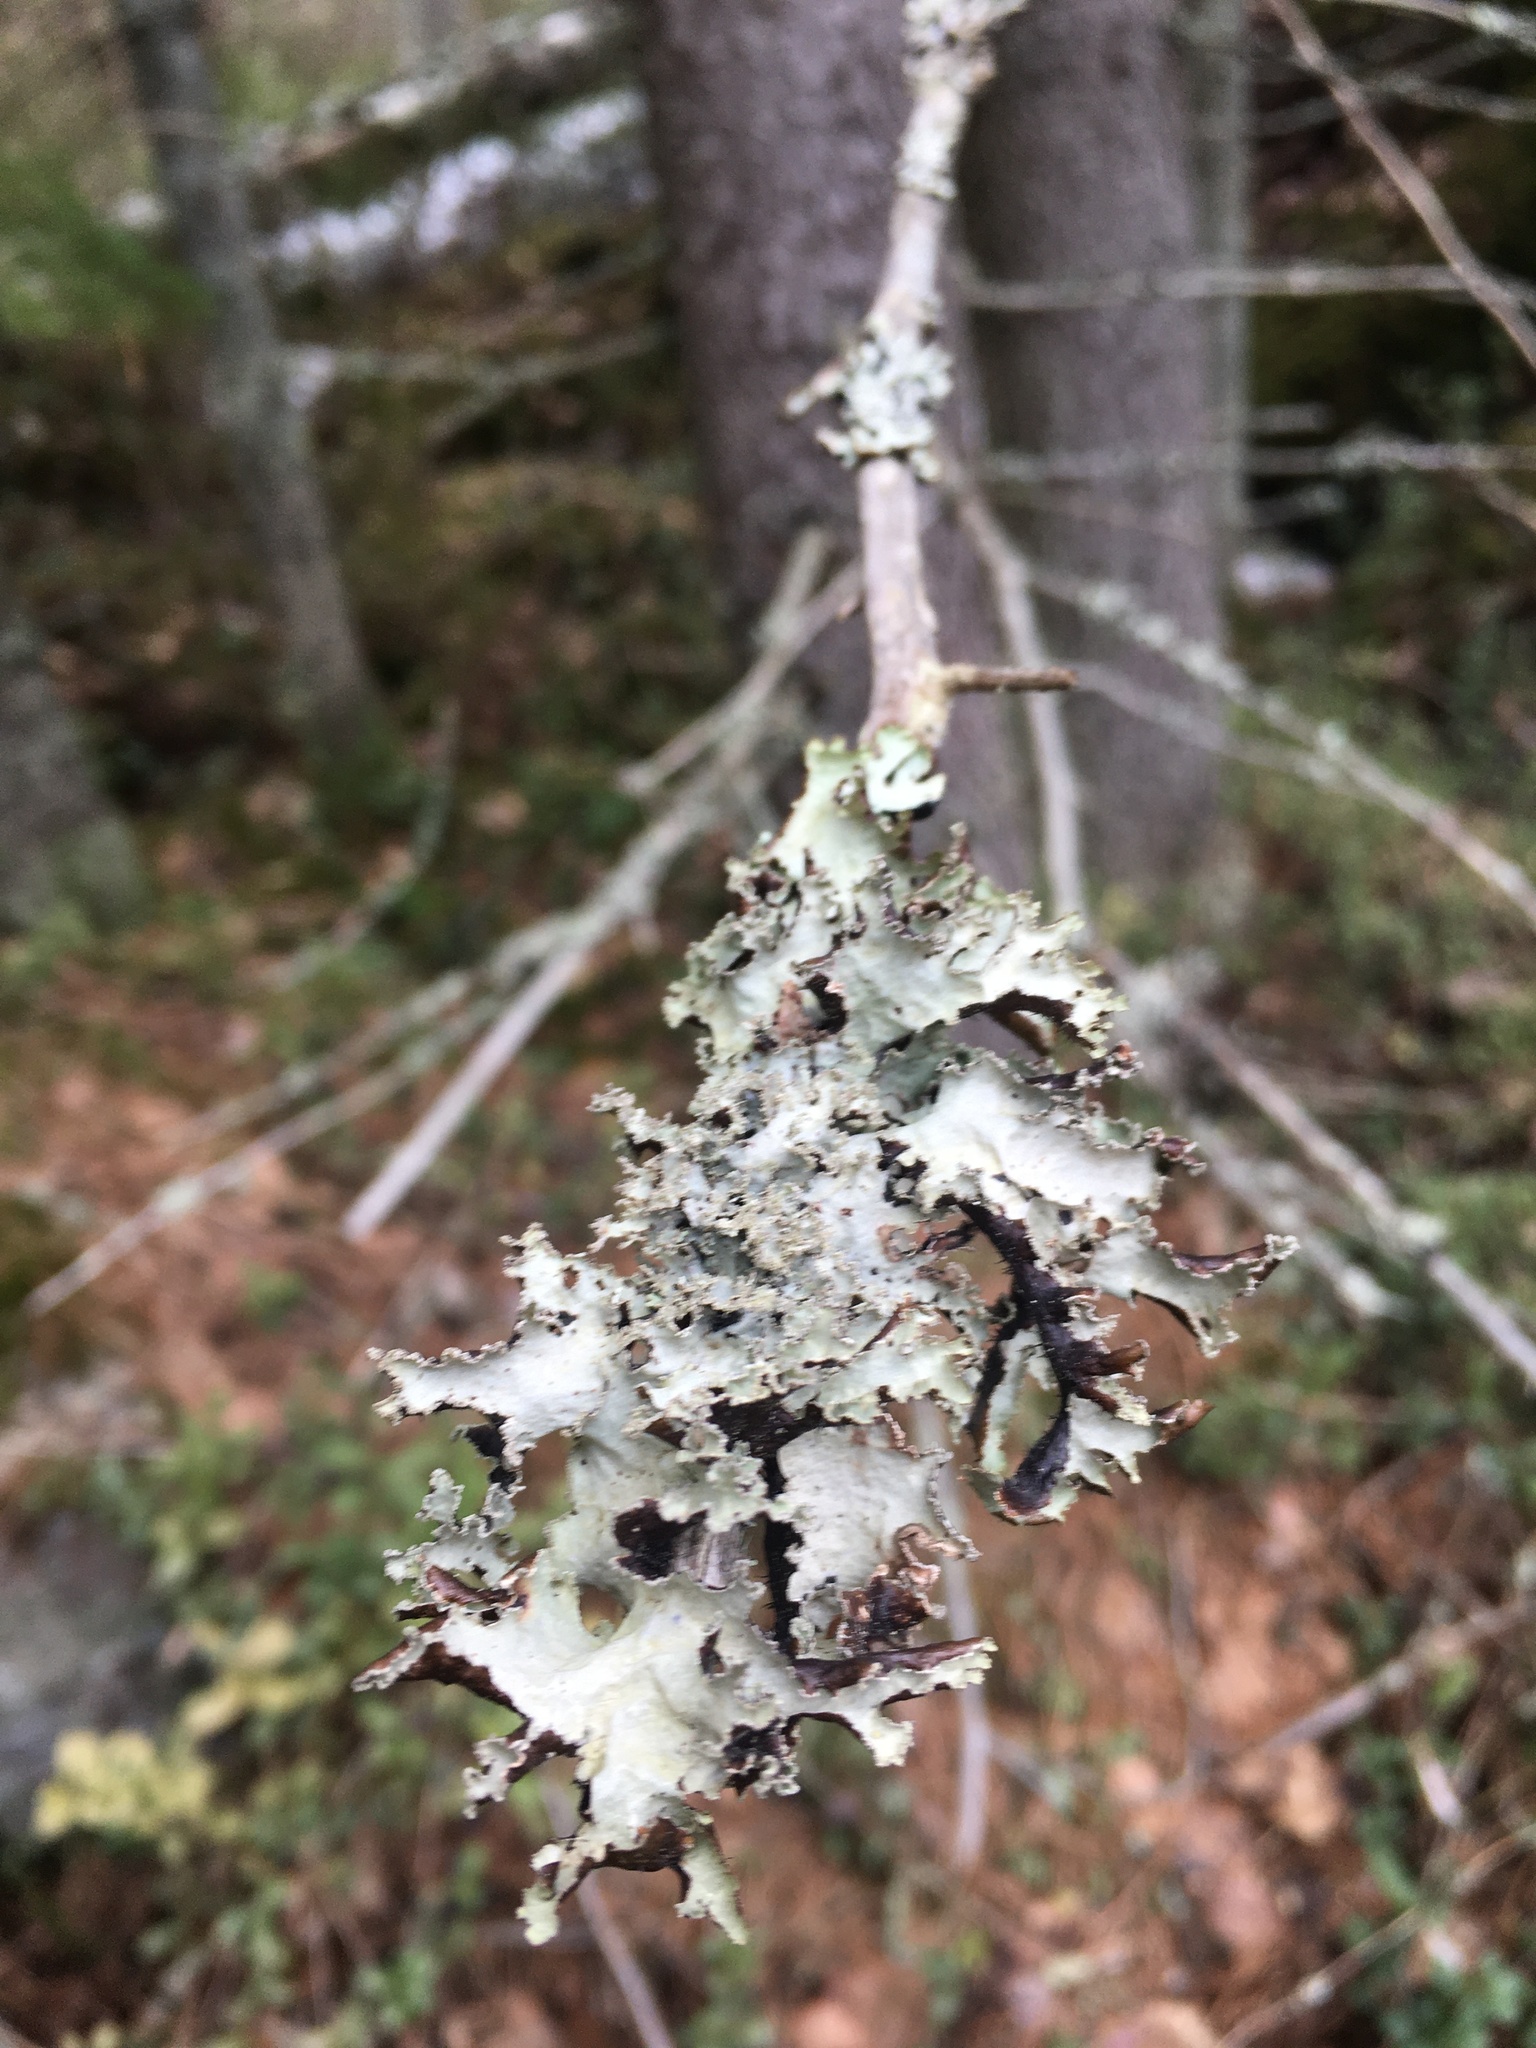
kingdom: Fungi
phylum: Ascomycota
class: Lecanoromycetes
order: Lecanorales
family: Parmeliaceae
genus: Platismatia
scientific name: Platismatia glauca
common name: Varied rag lichen
